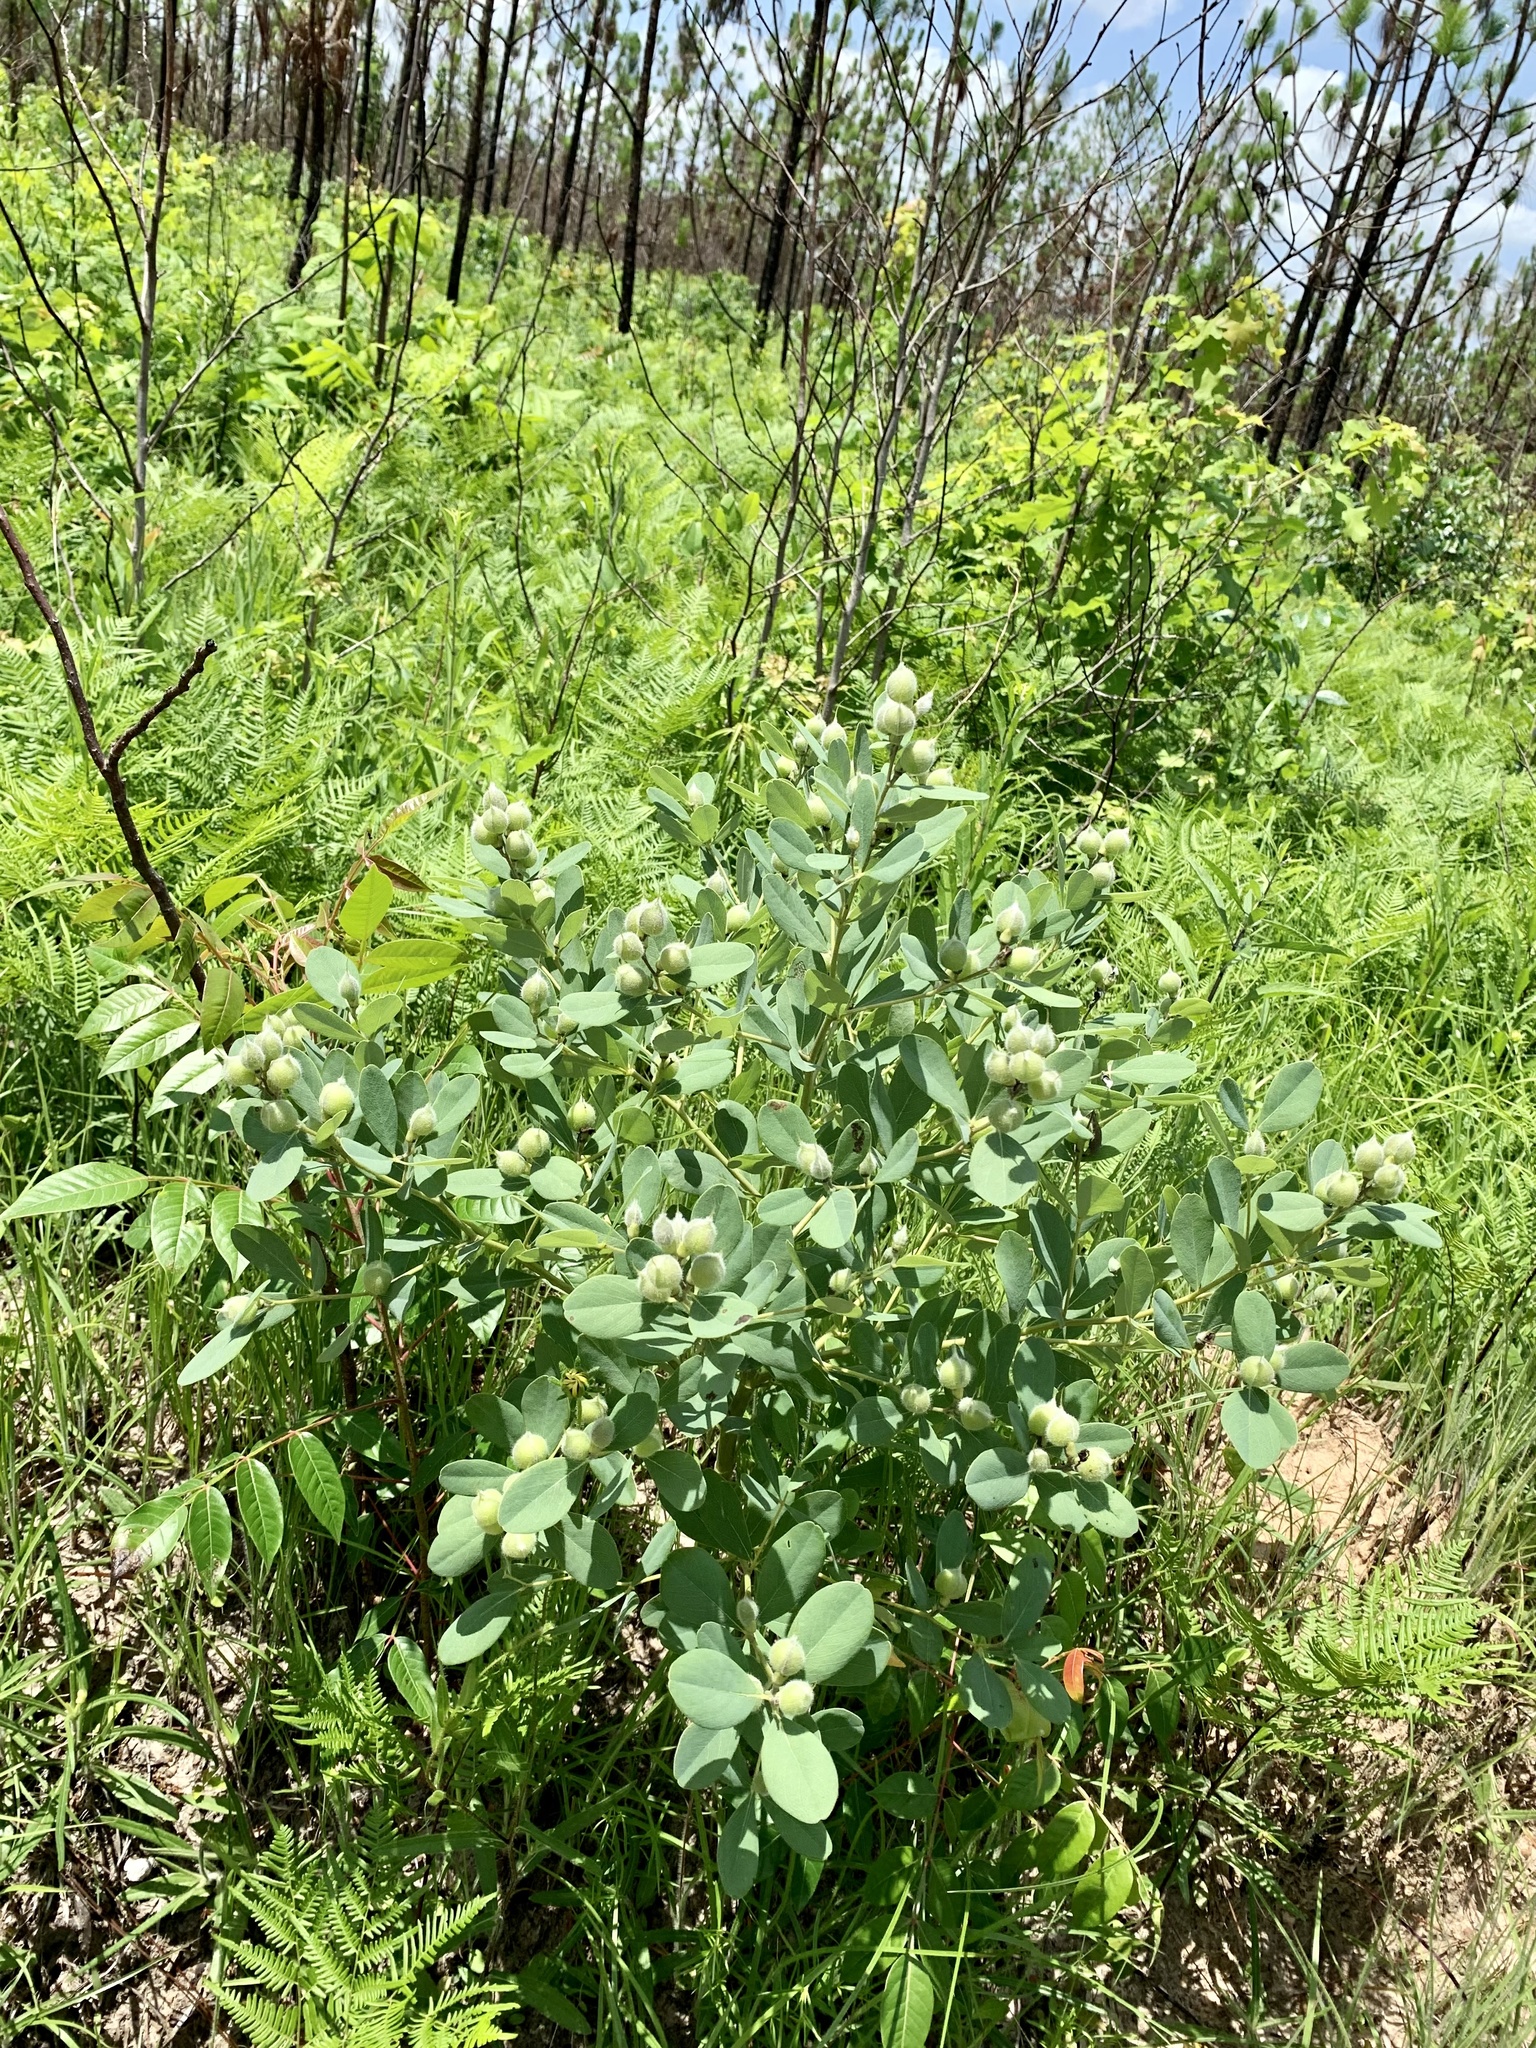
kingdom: Plantae
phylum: Tracheophyta
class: Magnoliopsida
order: Fabales
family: Fabaceae
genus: Baptisia
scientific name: Baptisia nuttalliana
